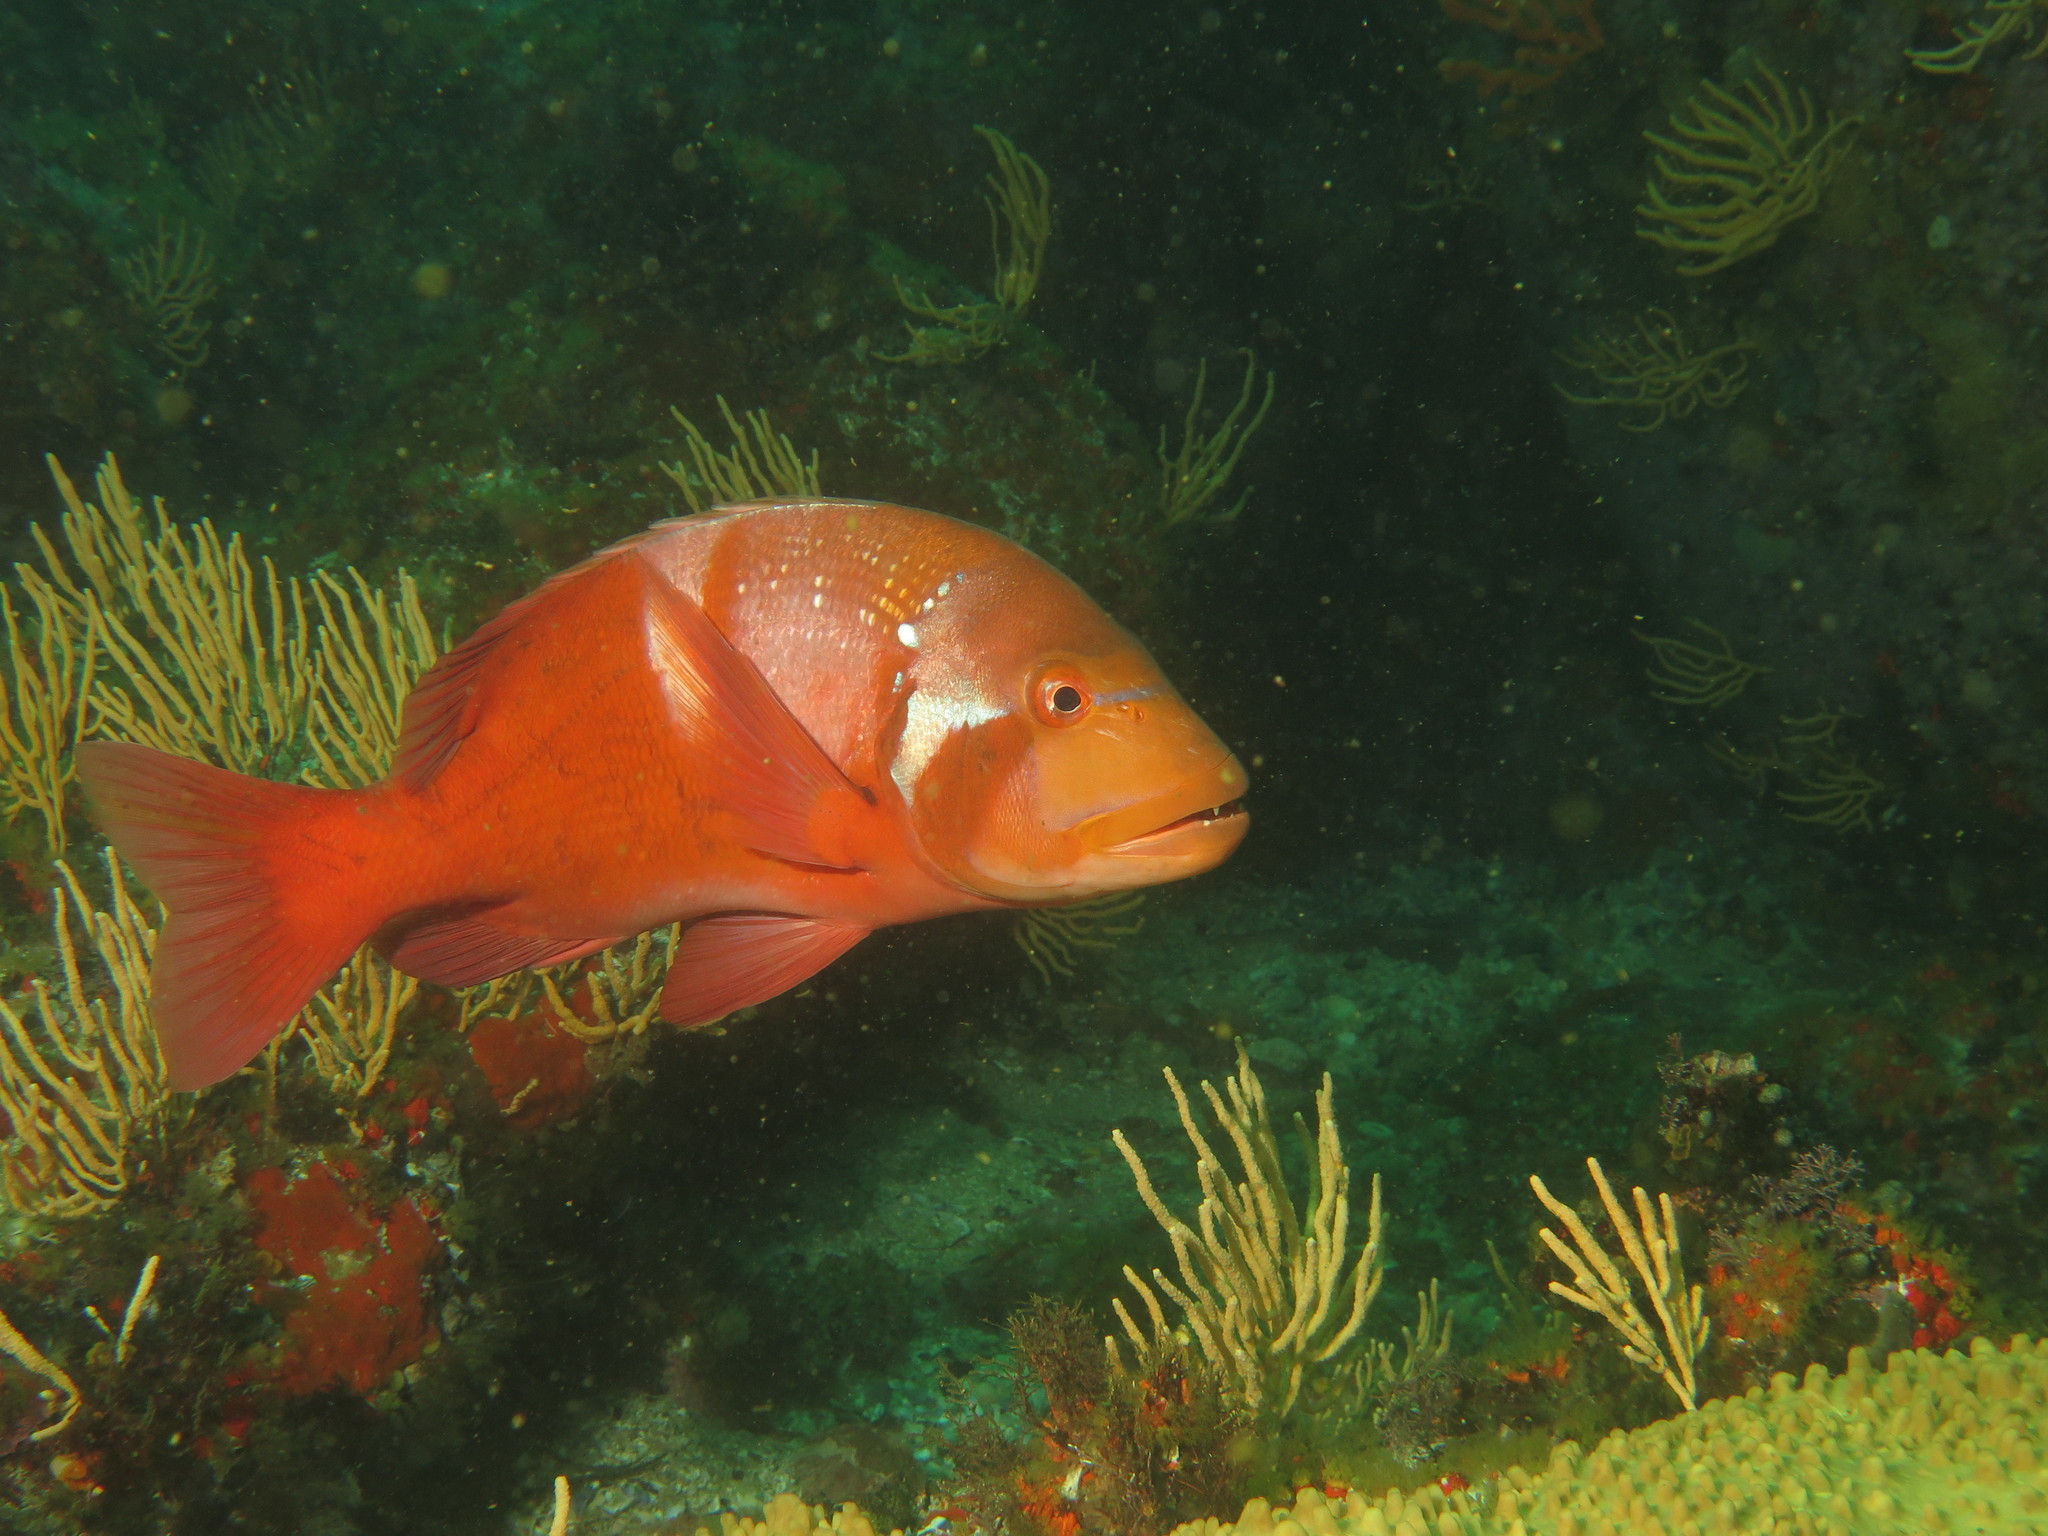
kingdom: Animalia
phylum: Chordata
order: Perciformes
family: Sparidae
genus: Chrysoblephus
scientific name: Chrysoblephus laticeps
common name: Roman seabream
